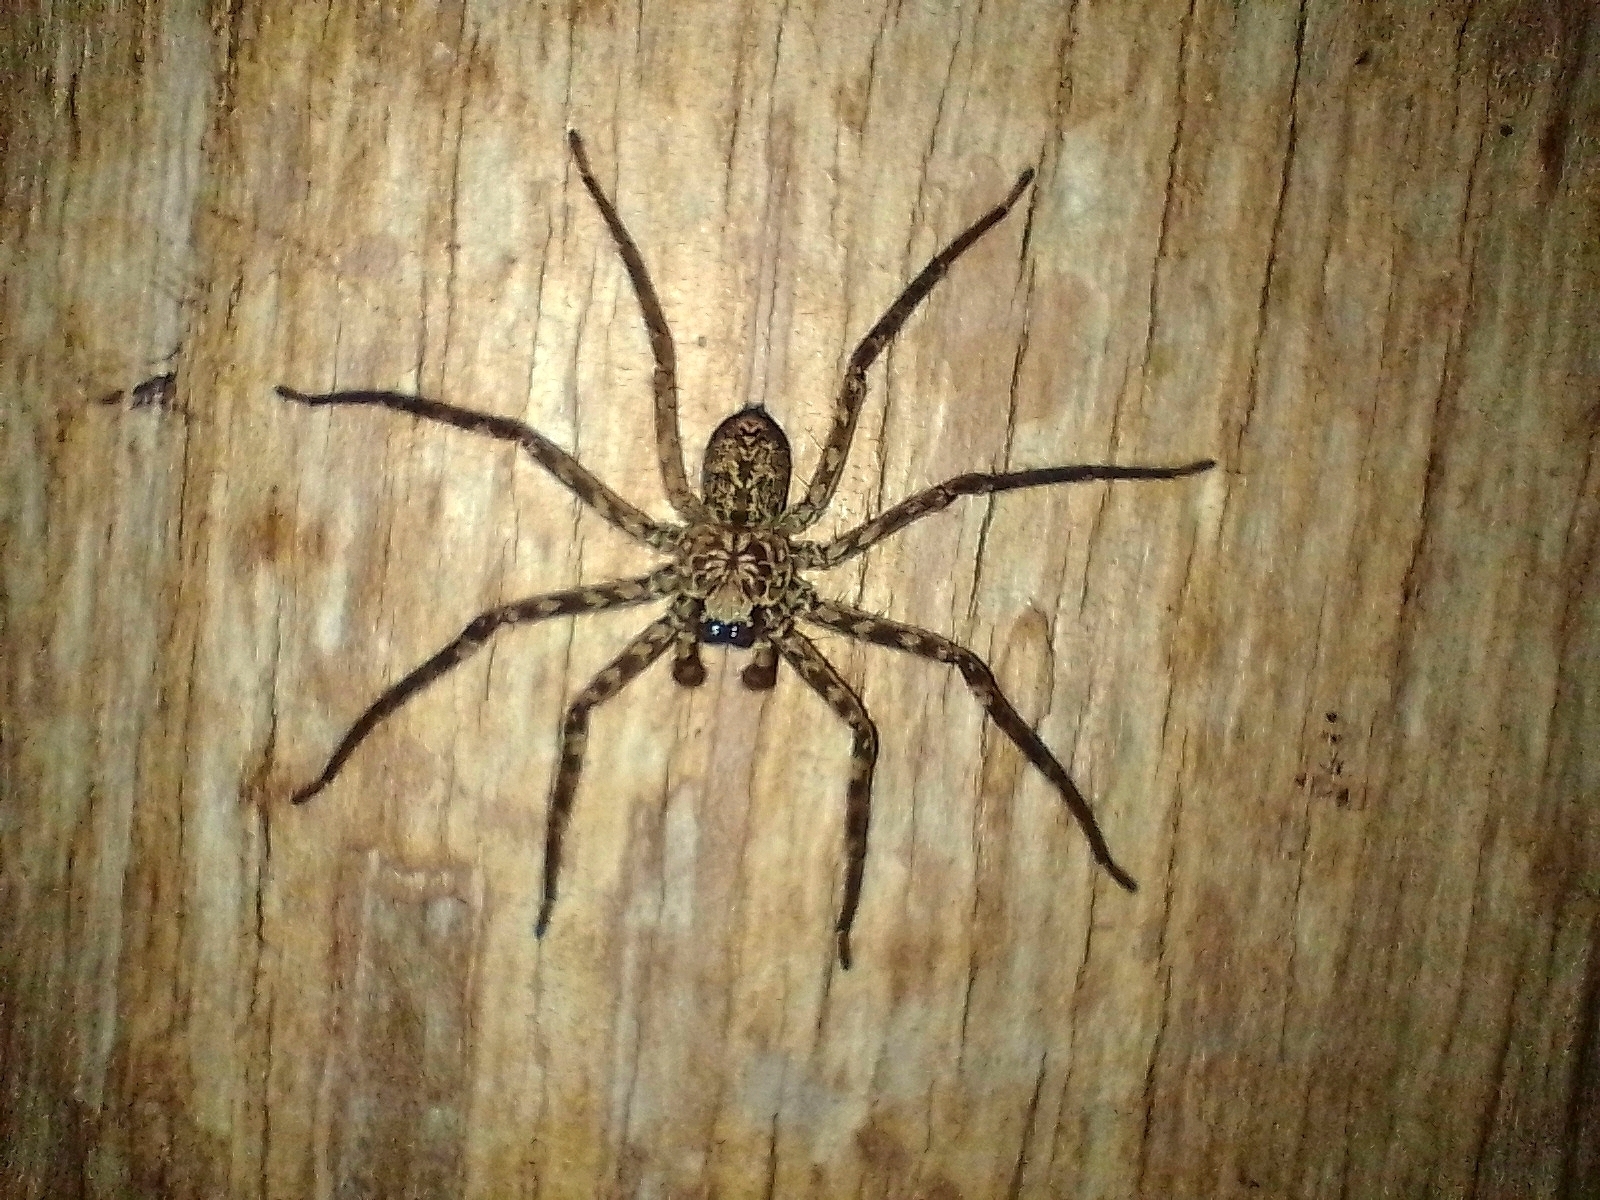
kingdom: Animalia
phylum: Arthropoda
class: Arachnida
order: Araneae
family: Selenopidae
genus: Selenops
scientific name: Selenops
